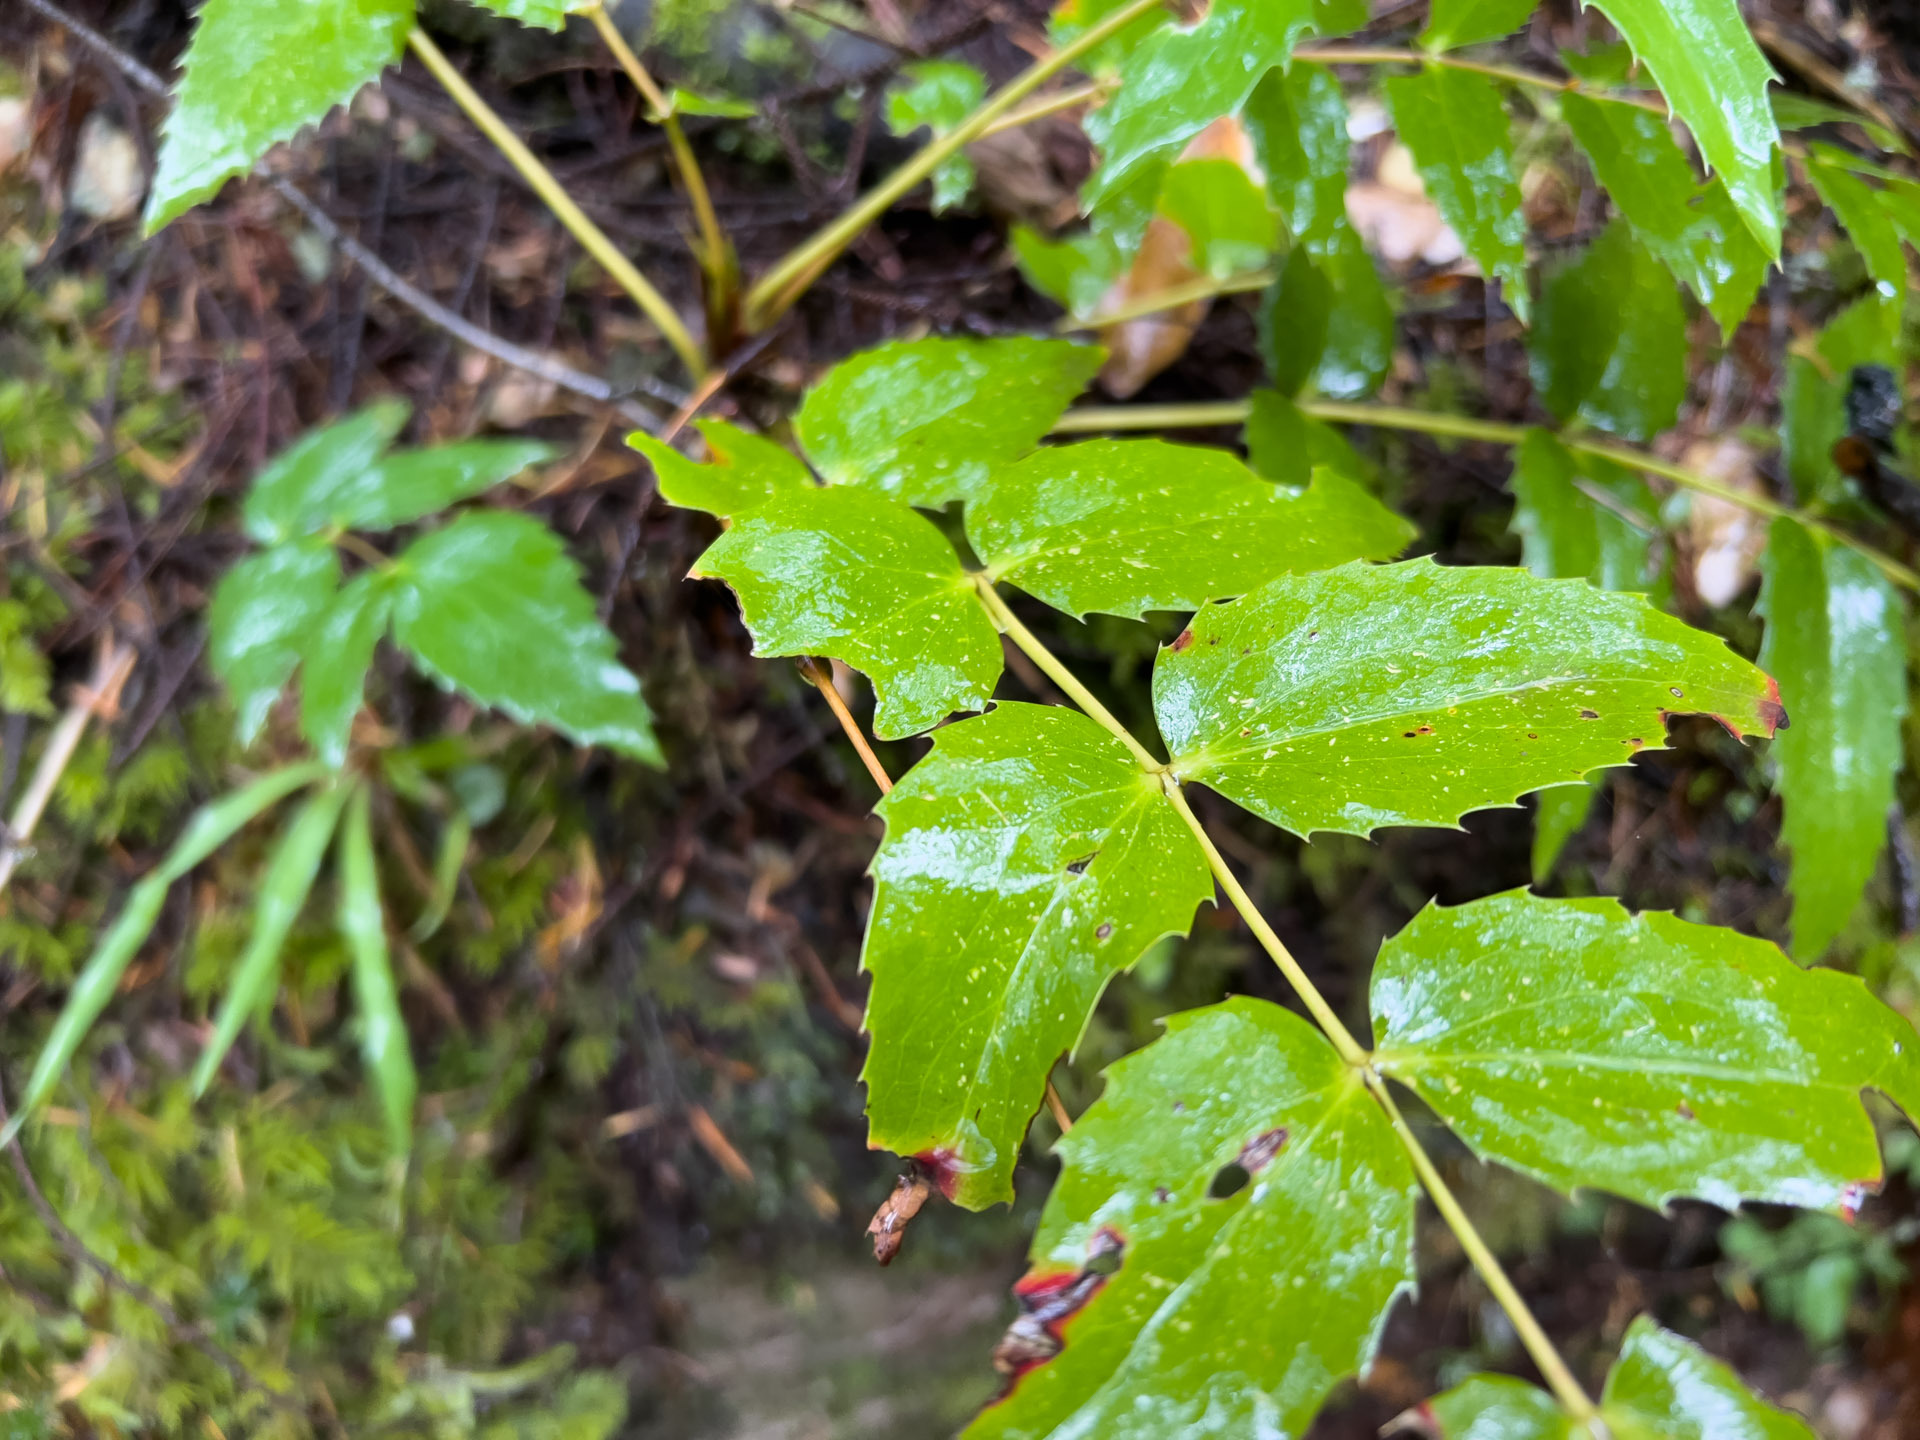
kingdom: Plantae
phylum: Tracheophyta
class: Magnoliopsida
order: Ranunculales
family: Berberidaceae
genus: Mahonia
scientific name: Mahonia nervosa
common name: Cascade oregon-grape
